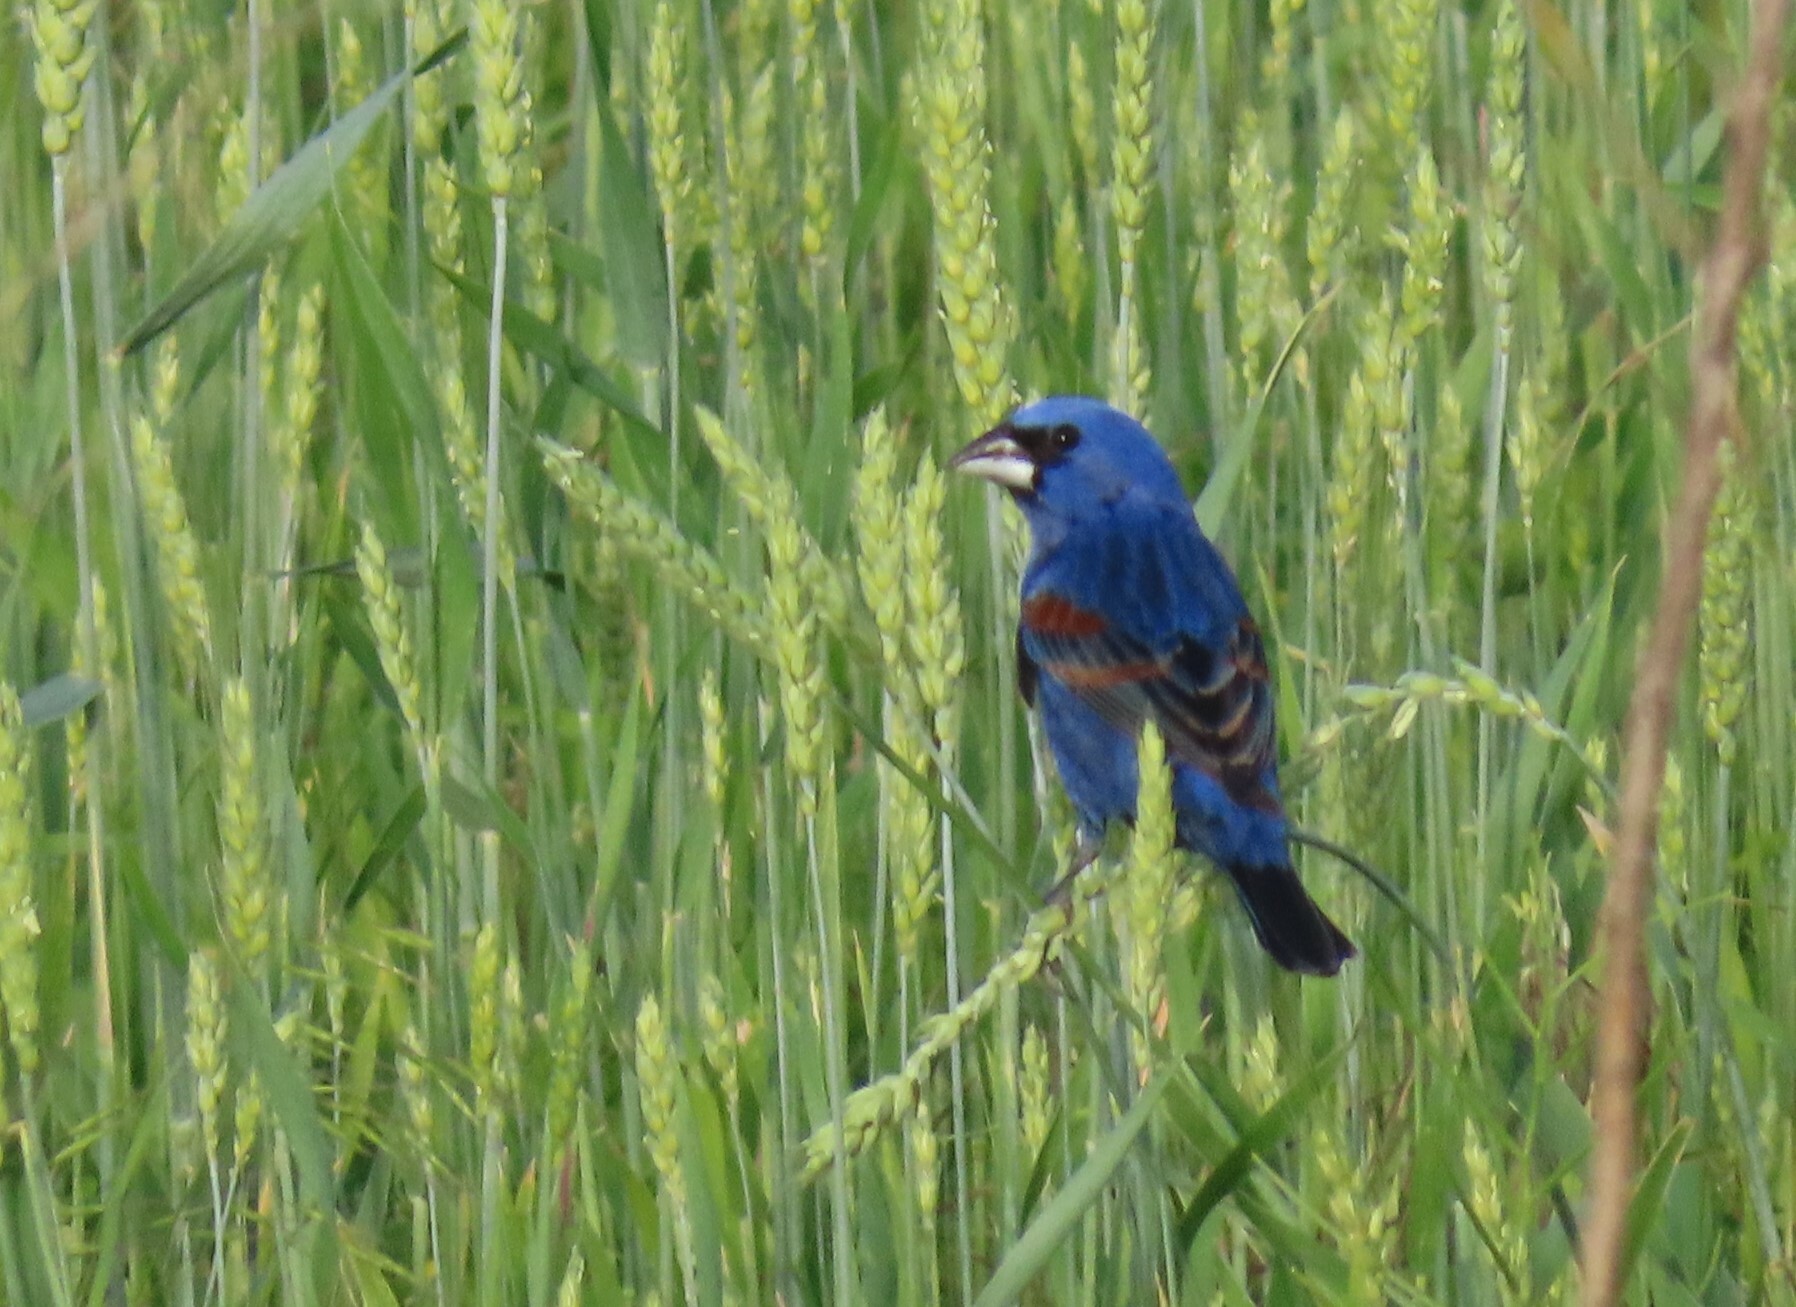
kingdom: Animalia
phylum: Chordata
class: Aves
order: Passeriformes
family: Cardinalidae
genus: Passerina
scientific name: Passerina caerulea
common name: Blue grosbeak
